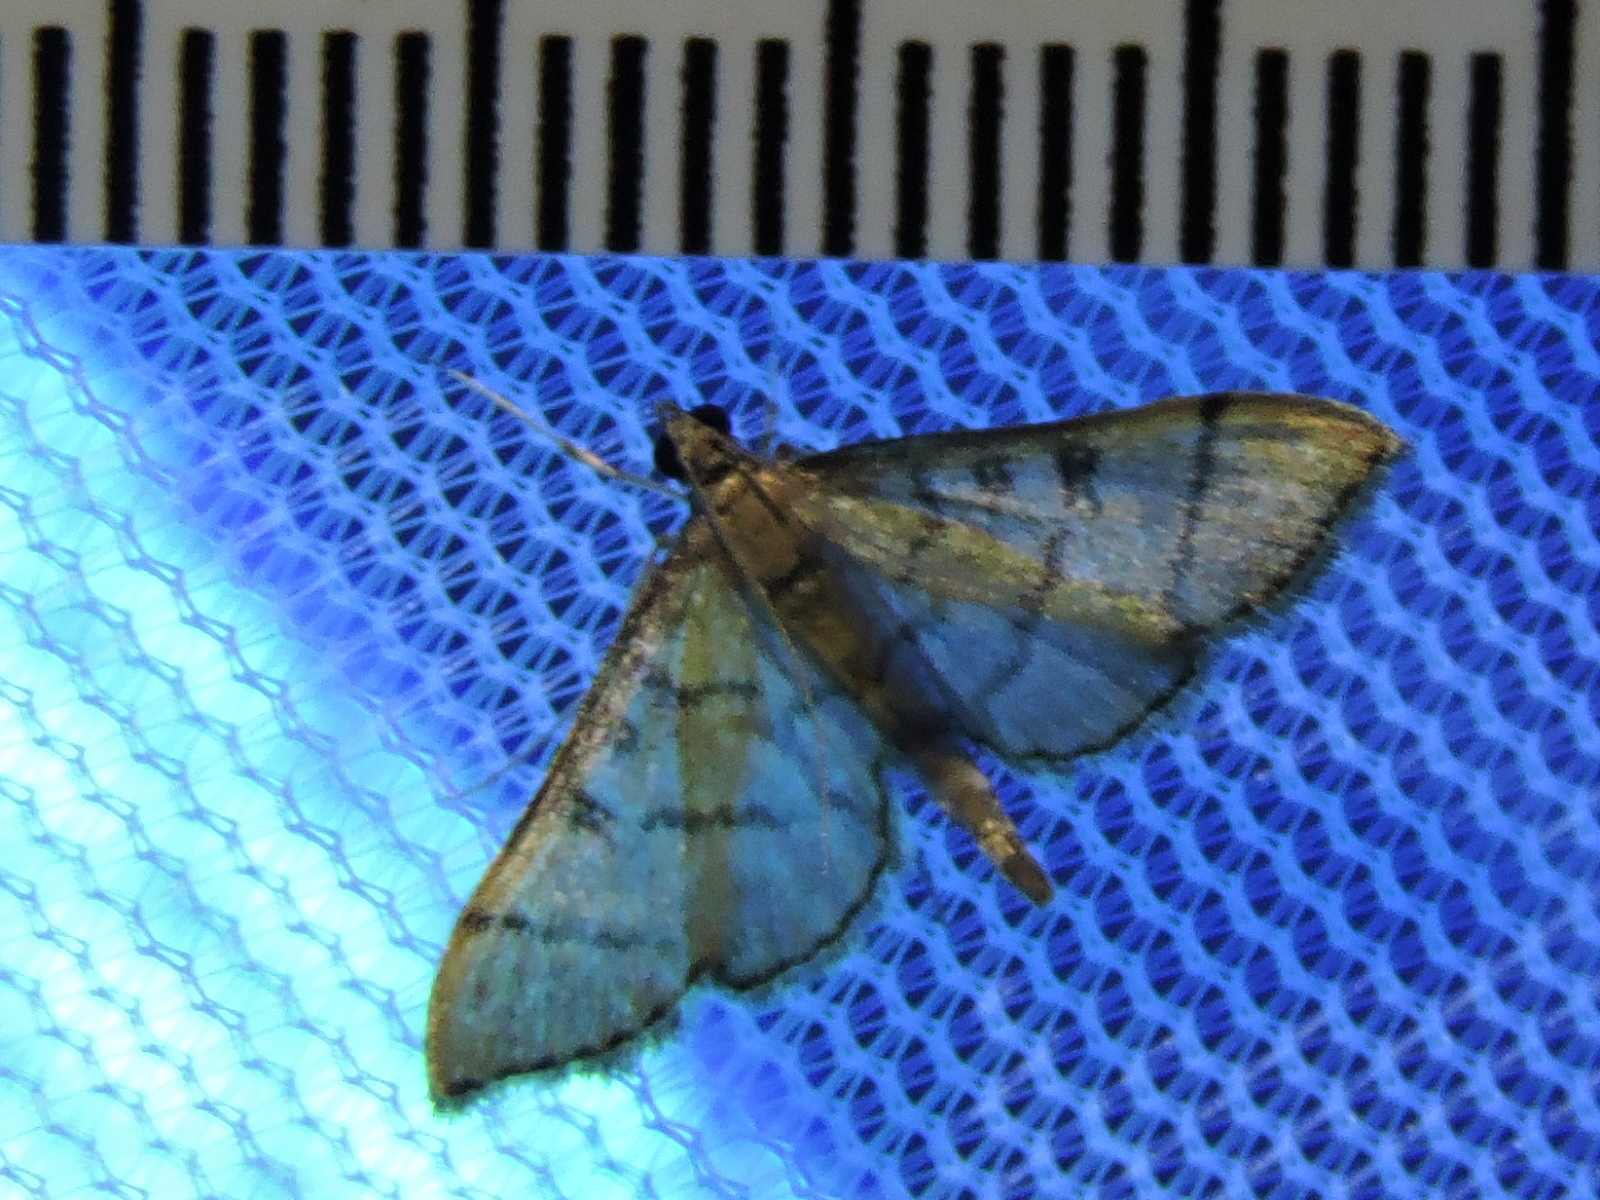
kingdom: Animalia
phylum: Arthropoda
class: Insecta
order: Lepidoptera
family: Crambidae
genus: Lamprosema
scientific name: Lamprosema Blepharomastix ranalis
